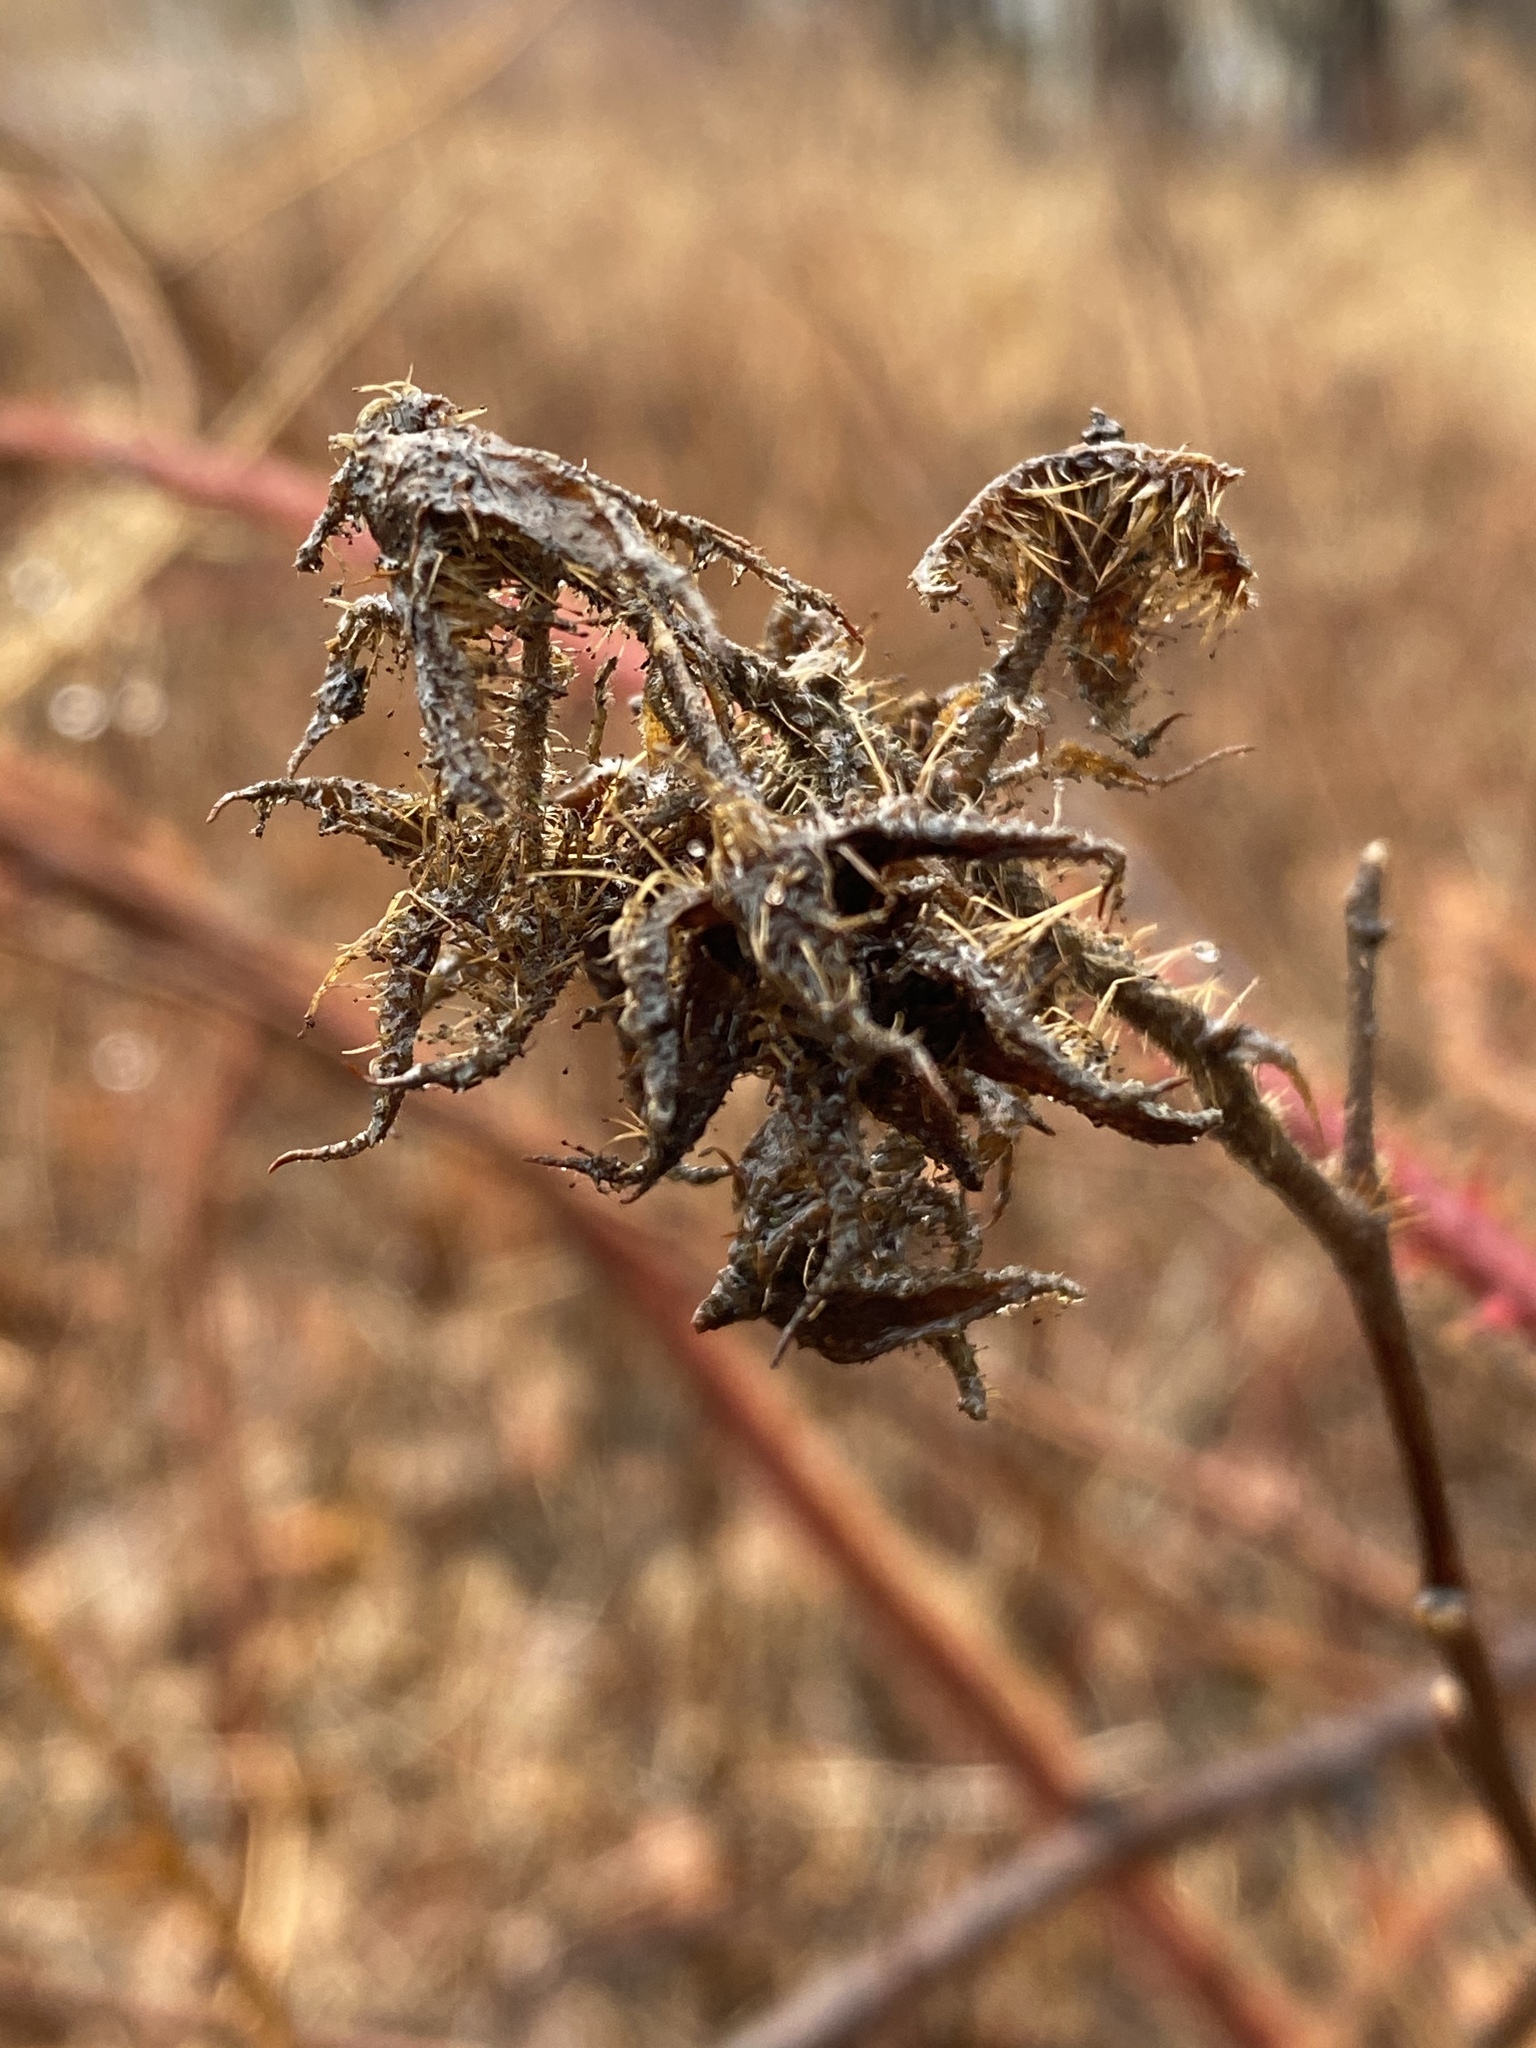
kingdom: Plantae
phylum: Tracheophyta
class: Magnoliopsida
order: Rosales
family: Rosaceae
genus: Rubus
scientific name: Rubus phoenicolasius
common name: Japanese wineberry
